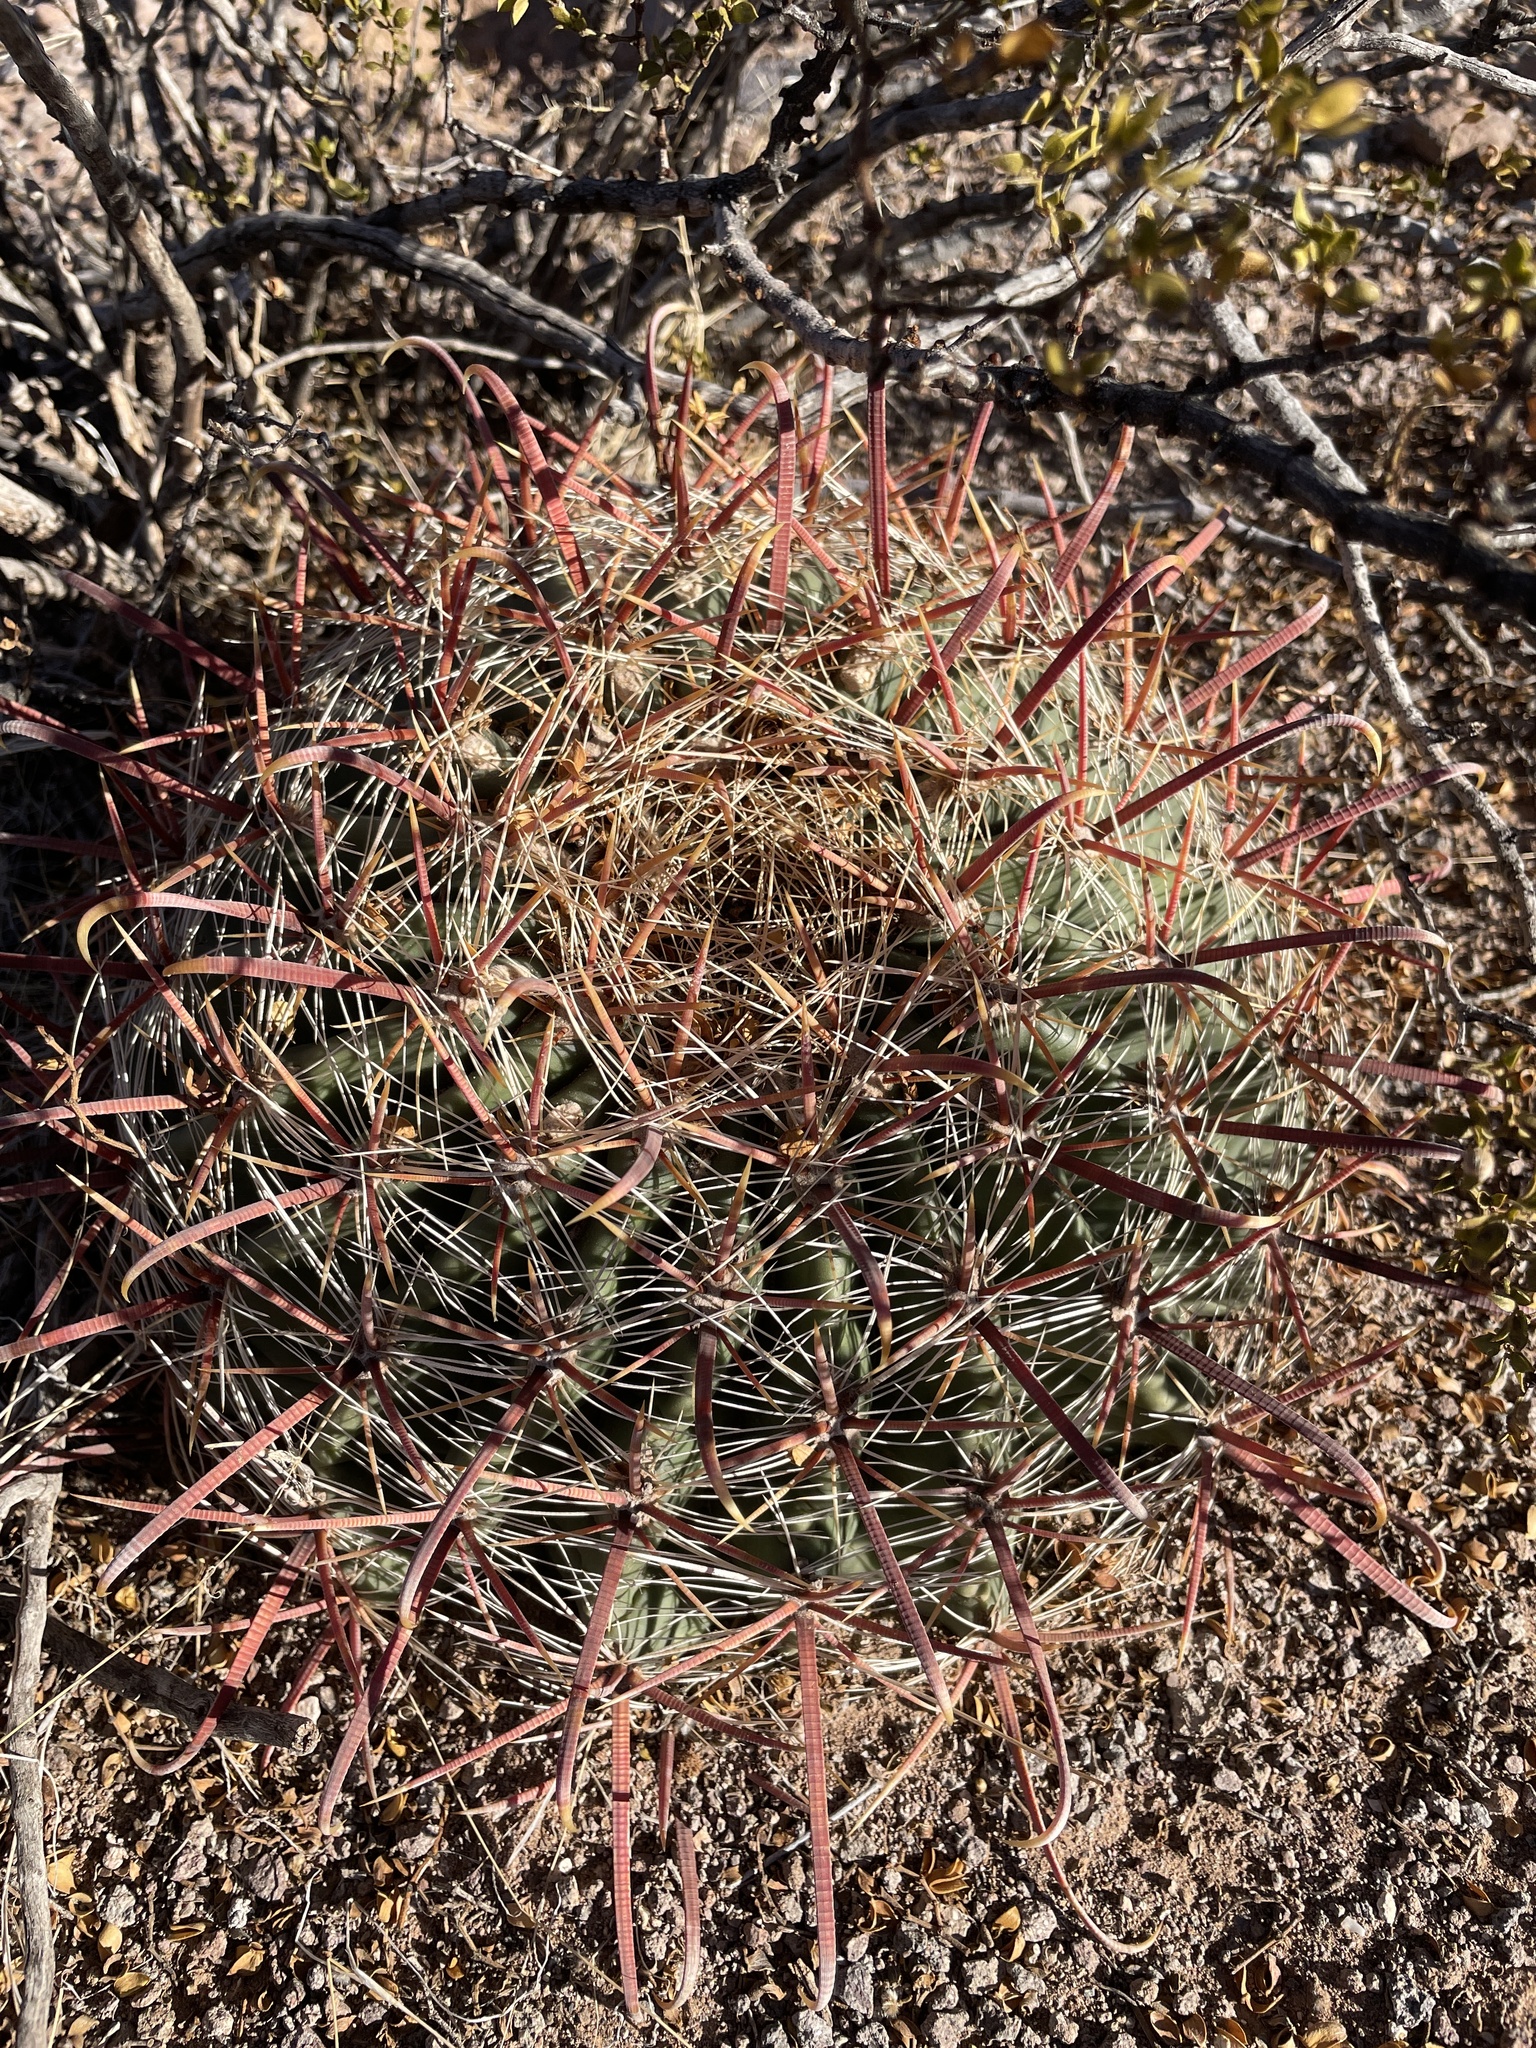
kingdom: Plantae
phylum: Tracheophyta
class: Magnoliopsida
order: Caryophyllales
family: Cactaceae
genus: Ferocactus
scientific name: Ferocactus wislizeni
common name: Candy barrel cactus
